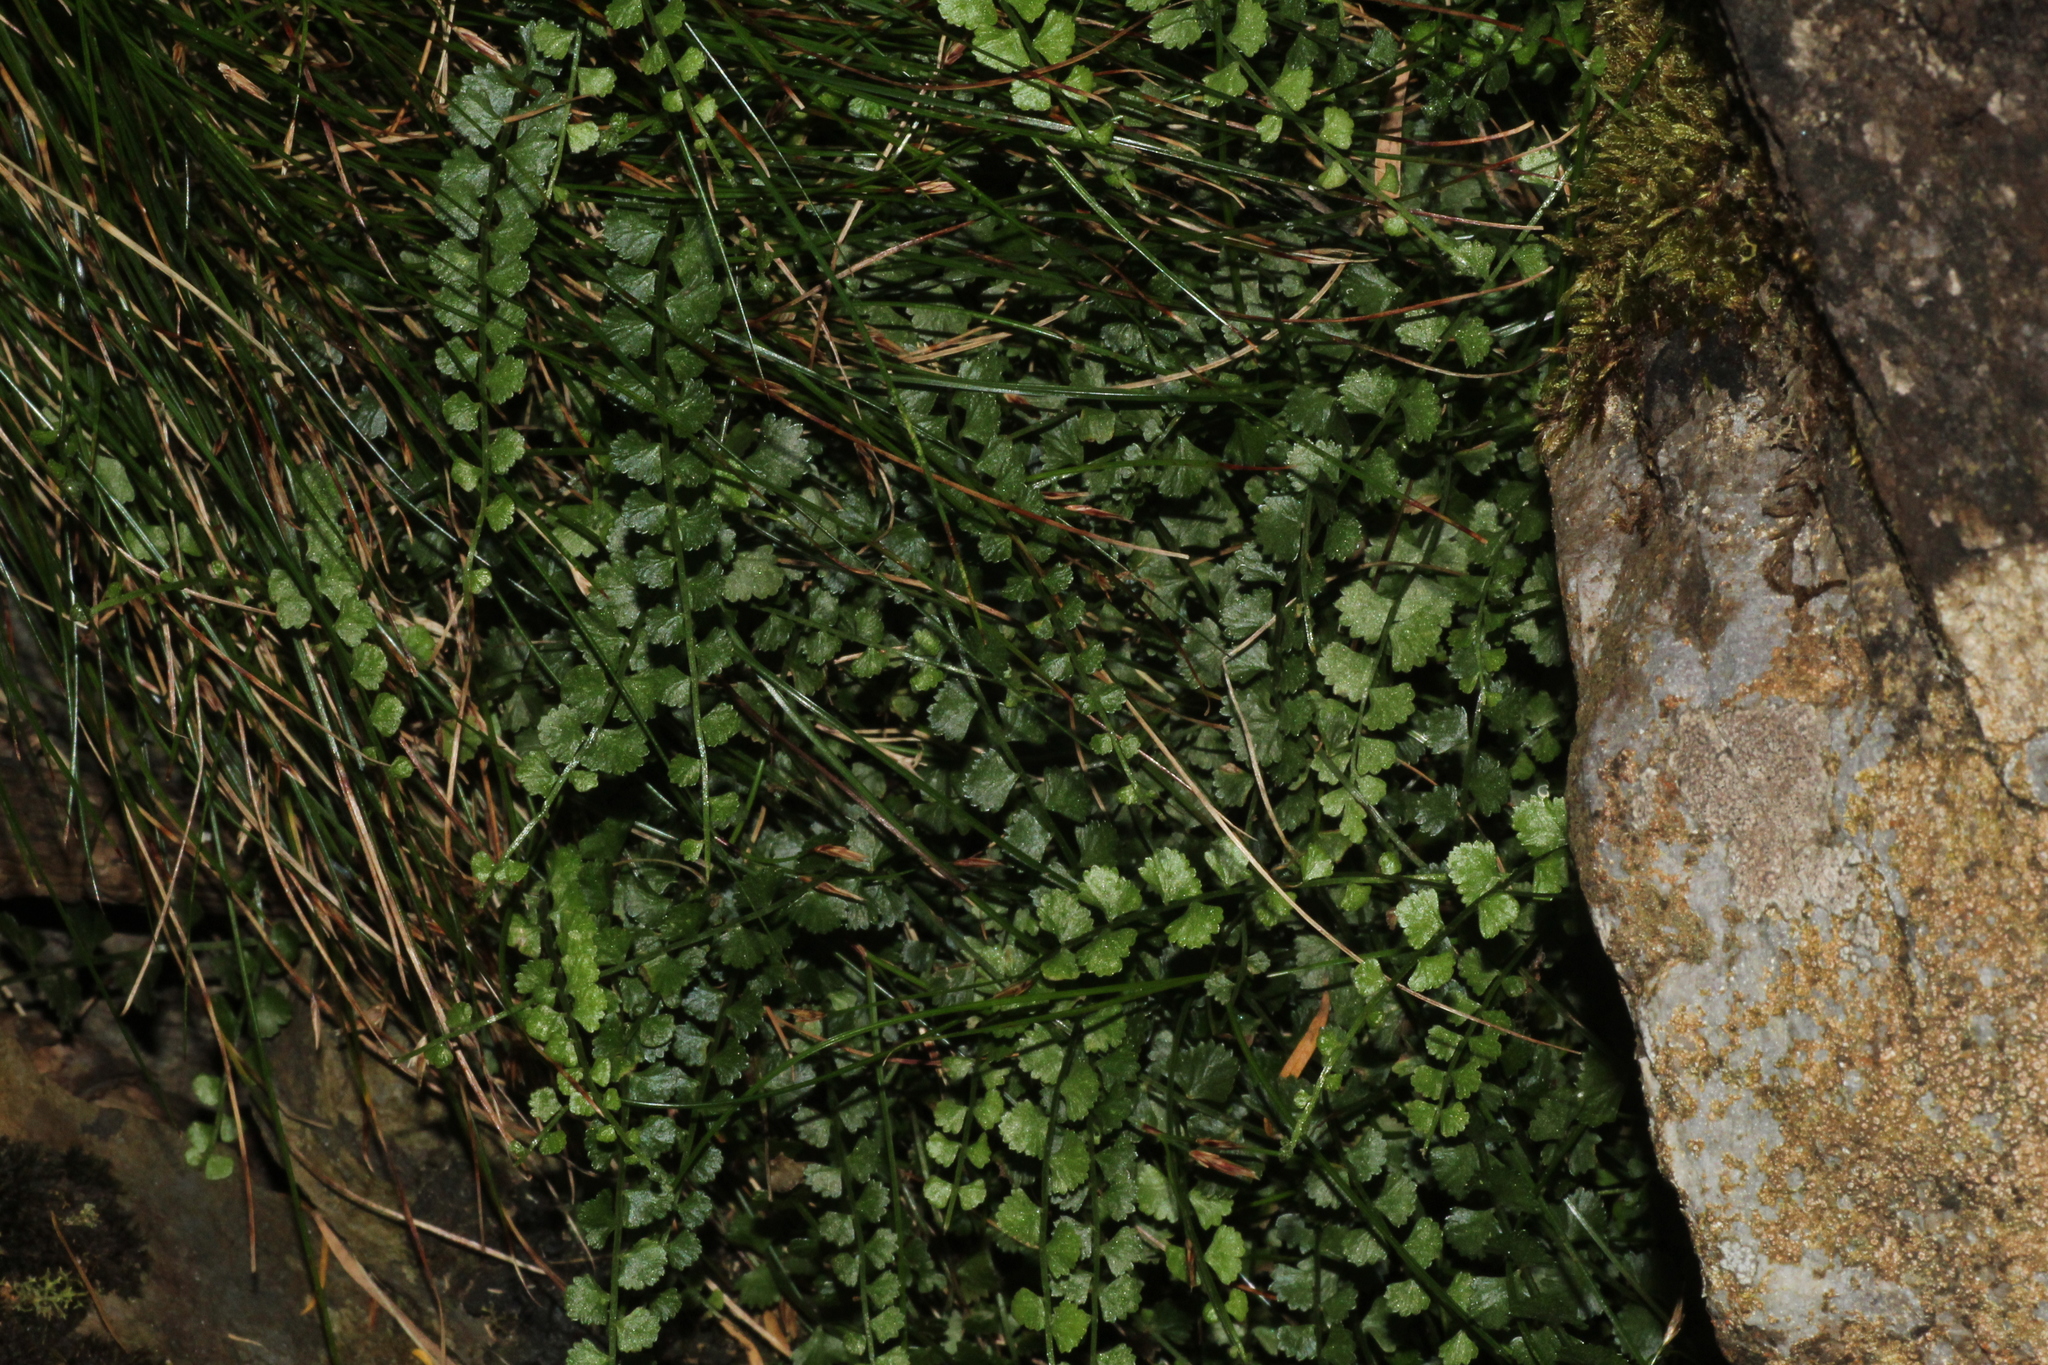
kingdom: Plantae
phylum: Tracheophyta
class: Polypodiopsida
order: Polypodiales
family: Aspleniaceae
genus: Asplenium
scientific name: Asplenium flabellifolium
